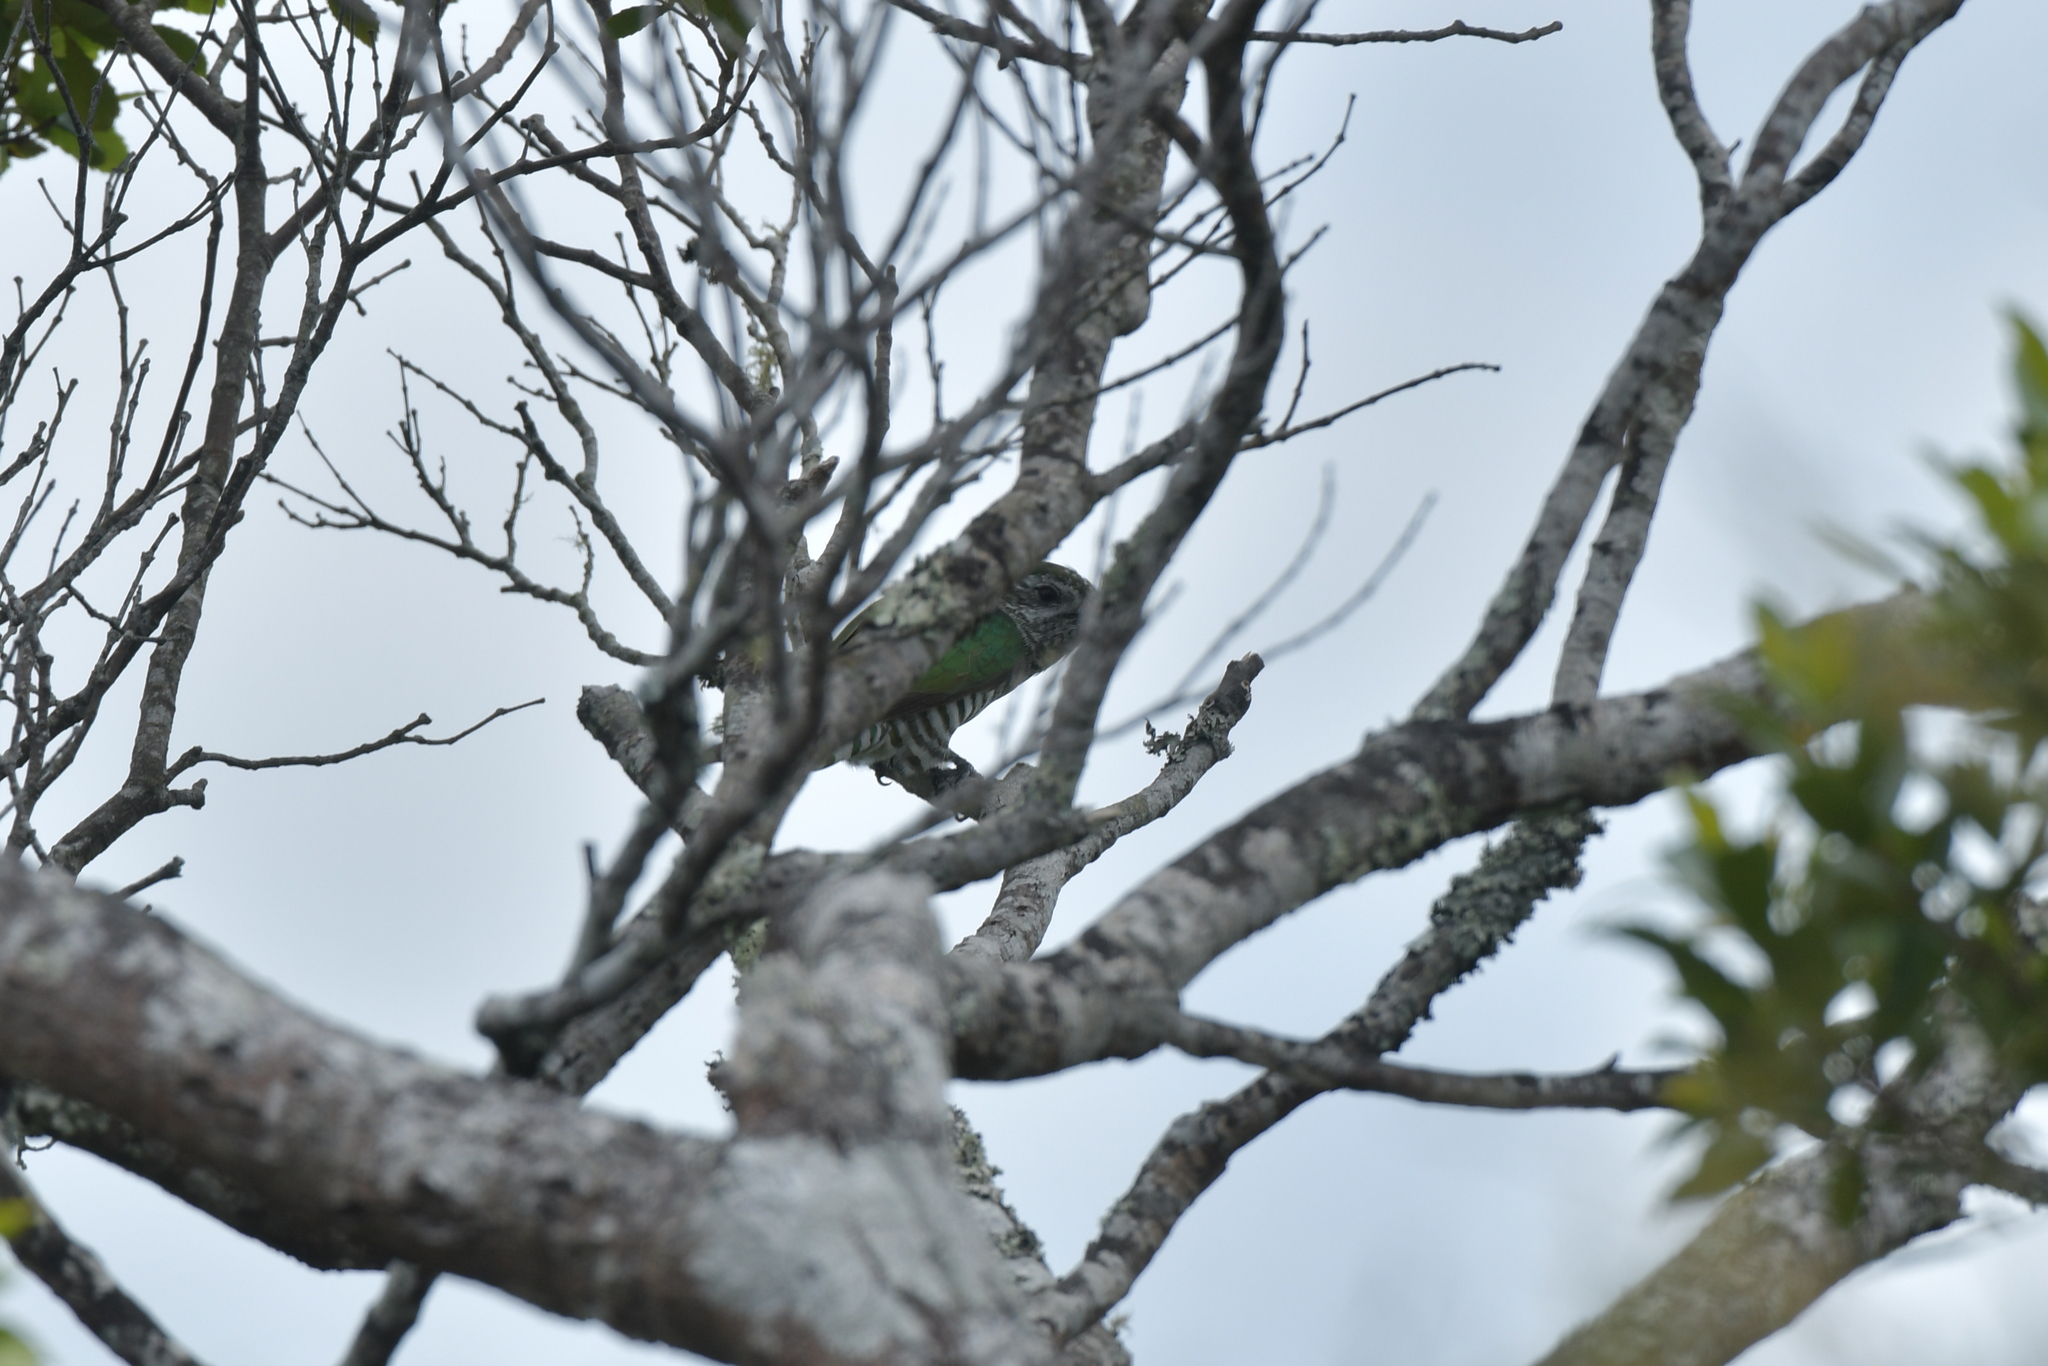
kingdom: Animalia
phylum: Chordata
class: Aves
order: Cuculiformes
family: Cuculidae
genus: Chrysococcyx
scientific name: Chrysococcyx lucidus
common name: Shining bronze cuckoo
